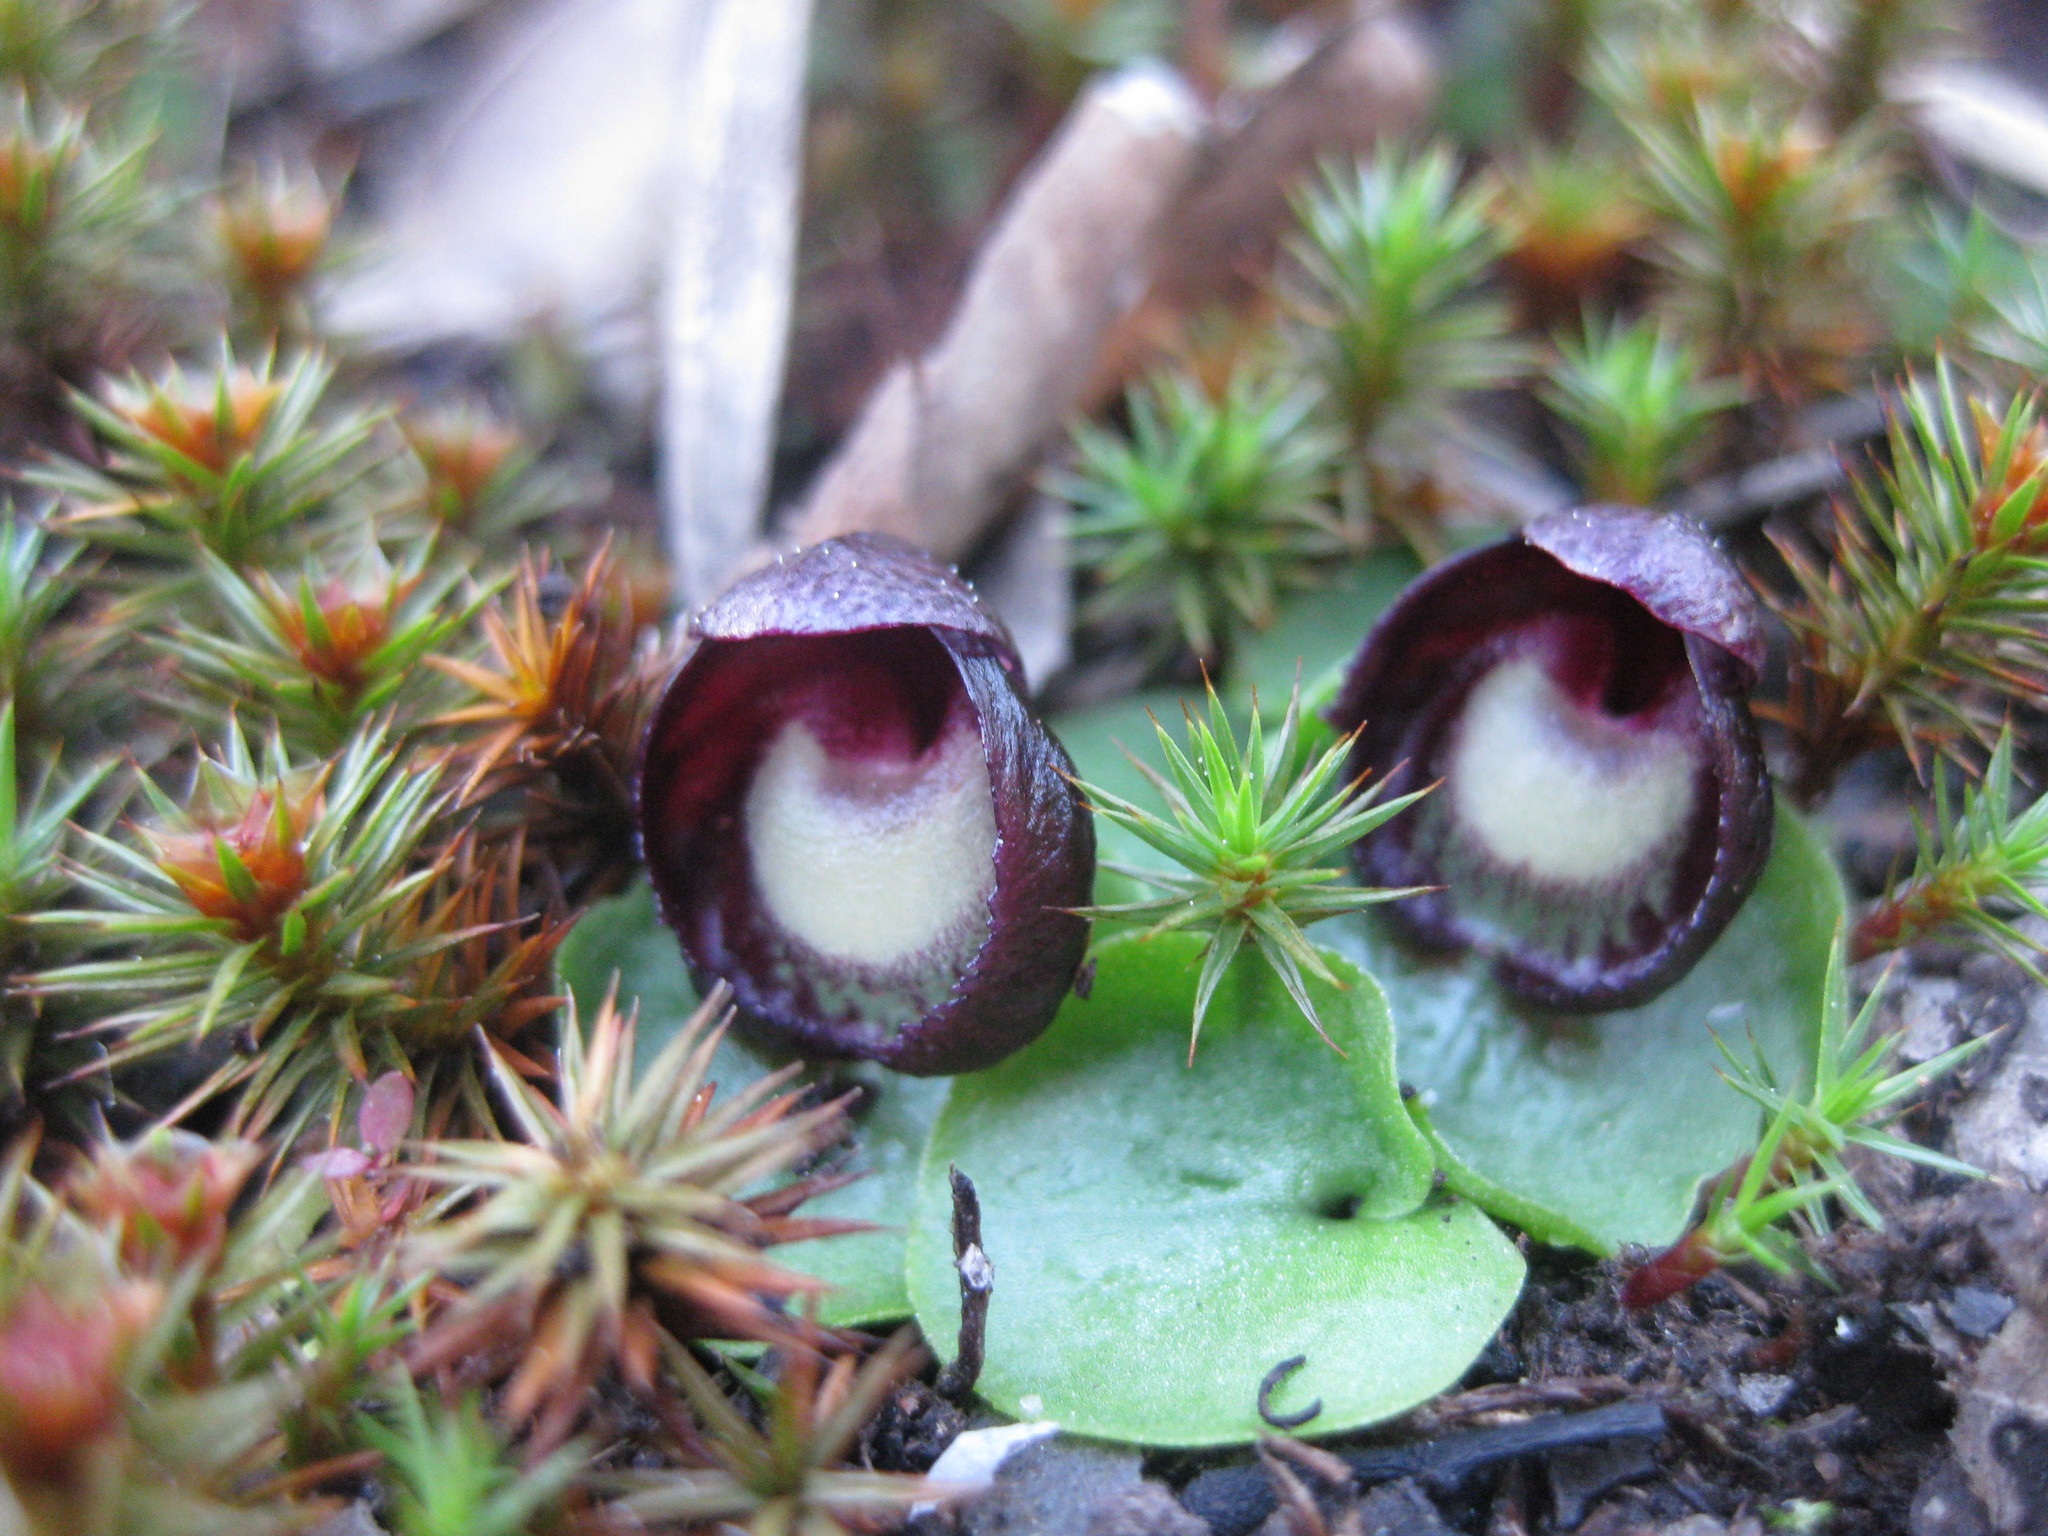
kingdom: Plantae
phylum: Tracheophyta
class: Liliopsida
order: Asparagales
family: Orchidaceae
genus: Corybas
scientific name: Corybas incurvus
